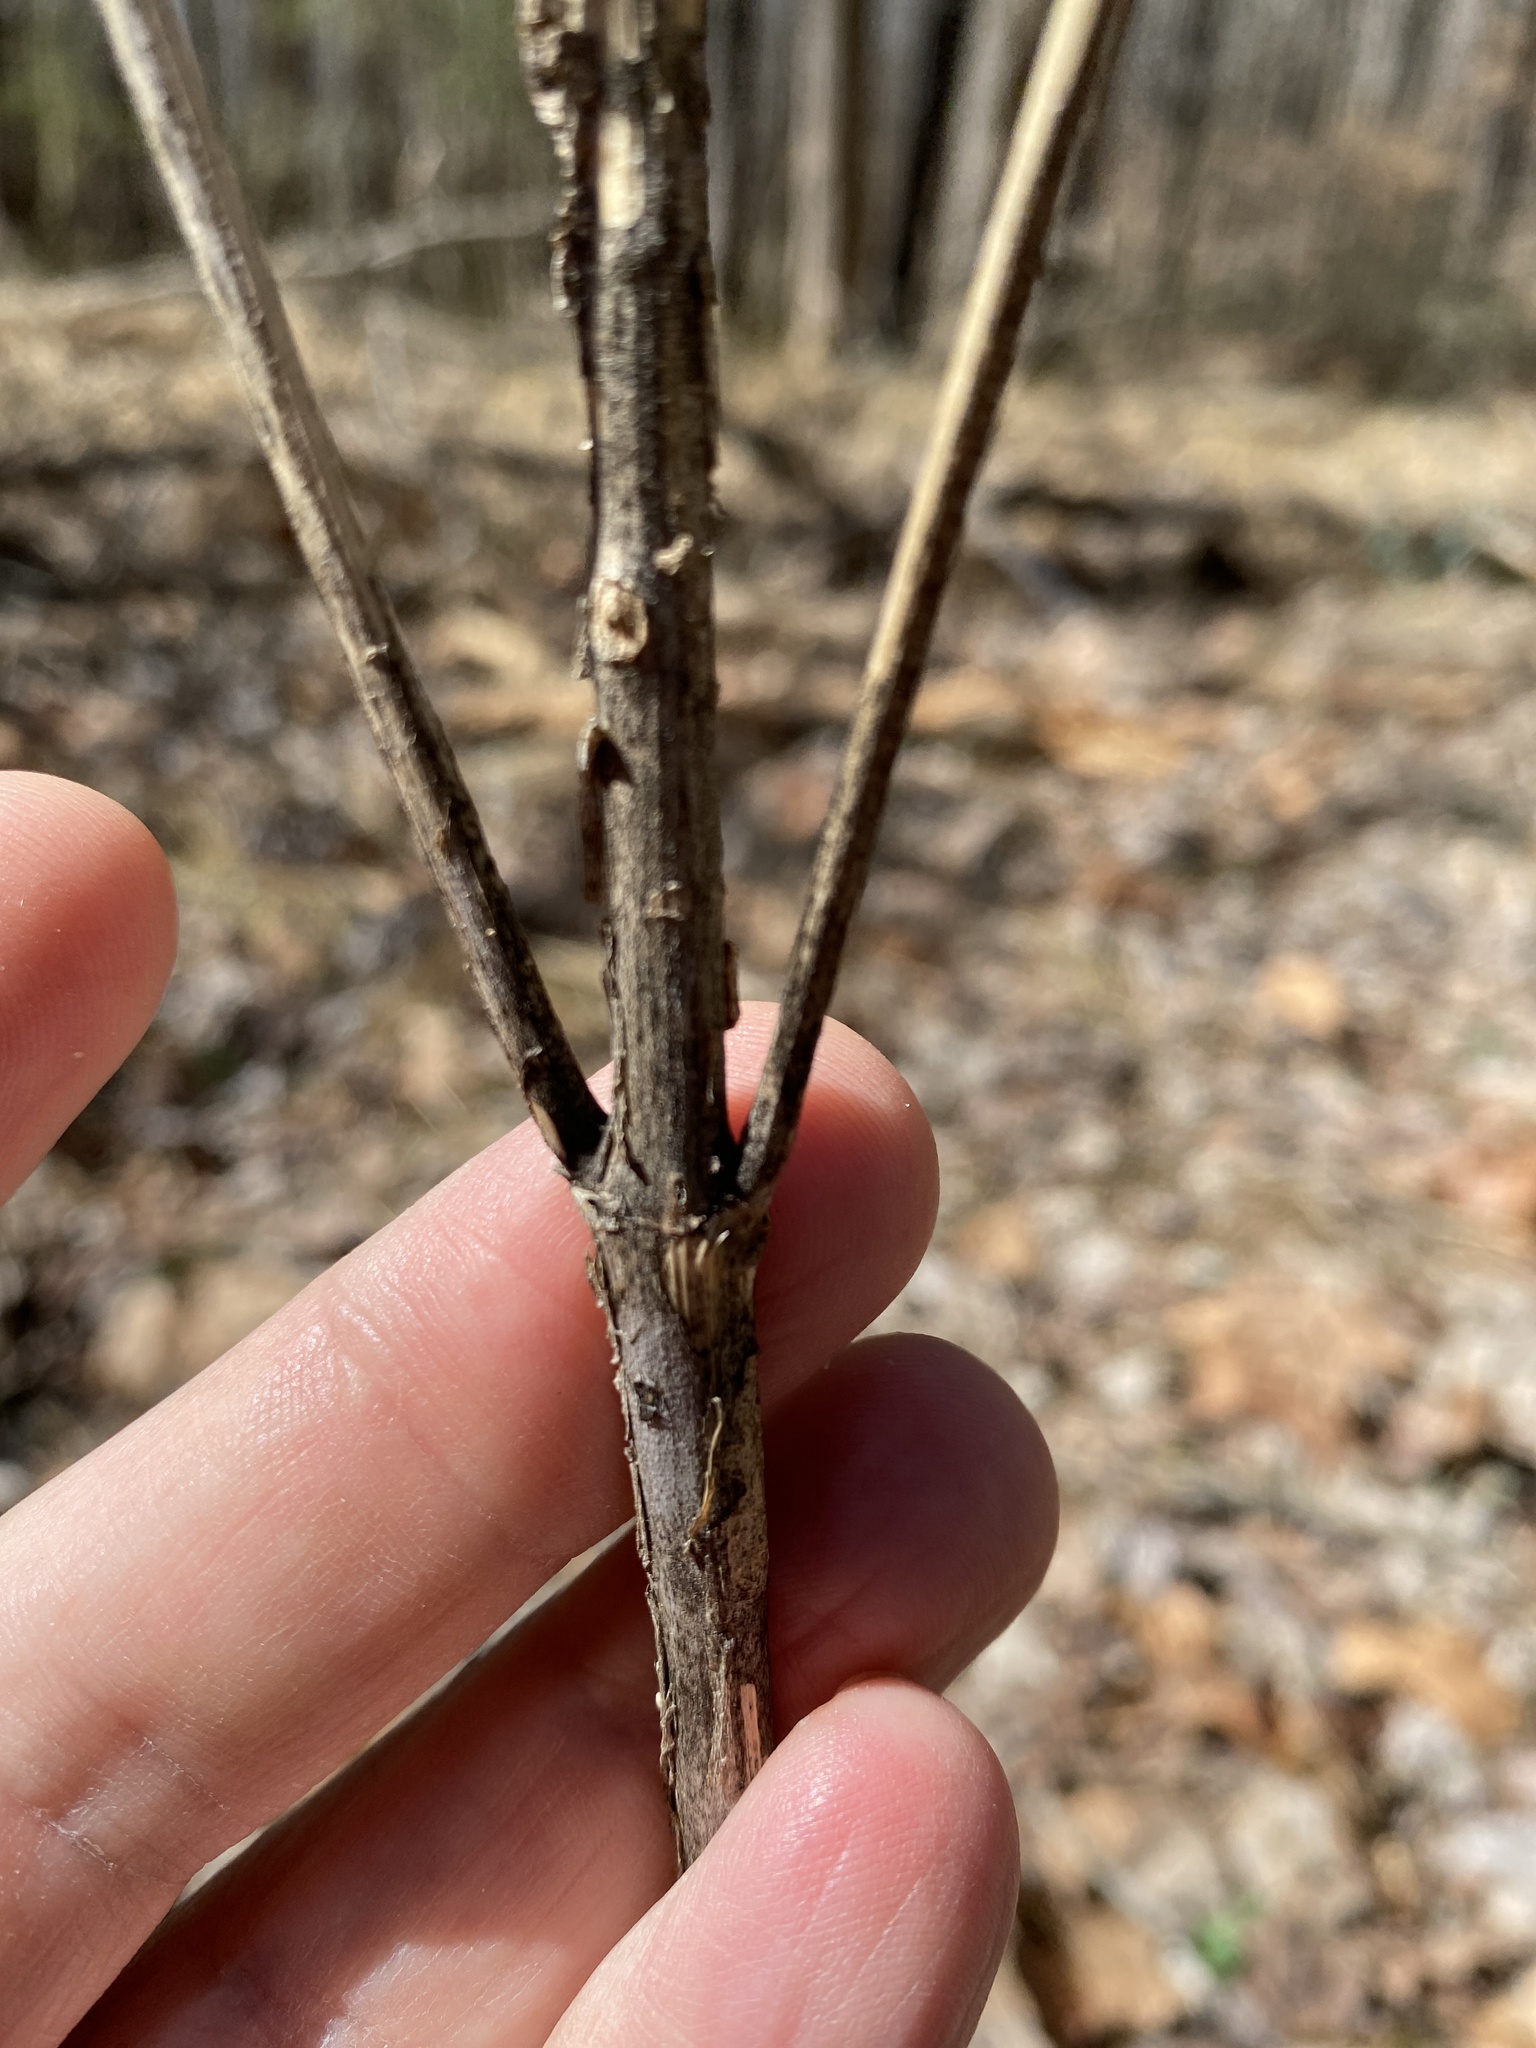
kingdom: Plantae
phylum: Tracheophyta
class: Magnoliopsida
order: Asterales
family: Asteraceae
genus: Verbesina
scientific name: Verbesina occidentalis
